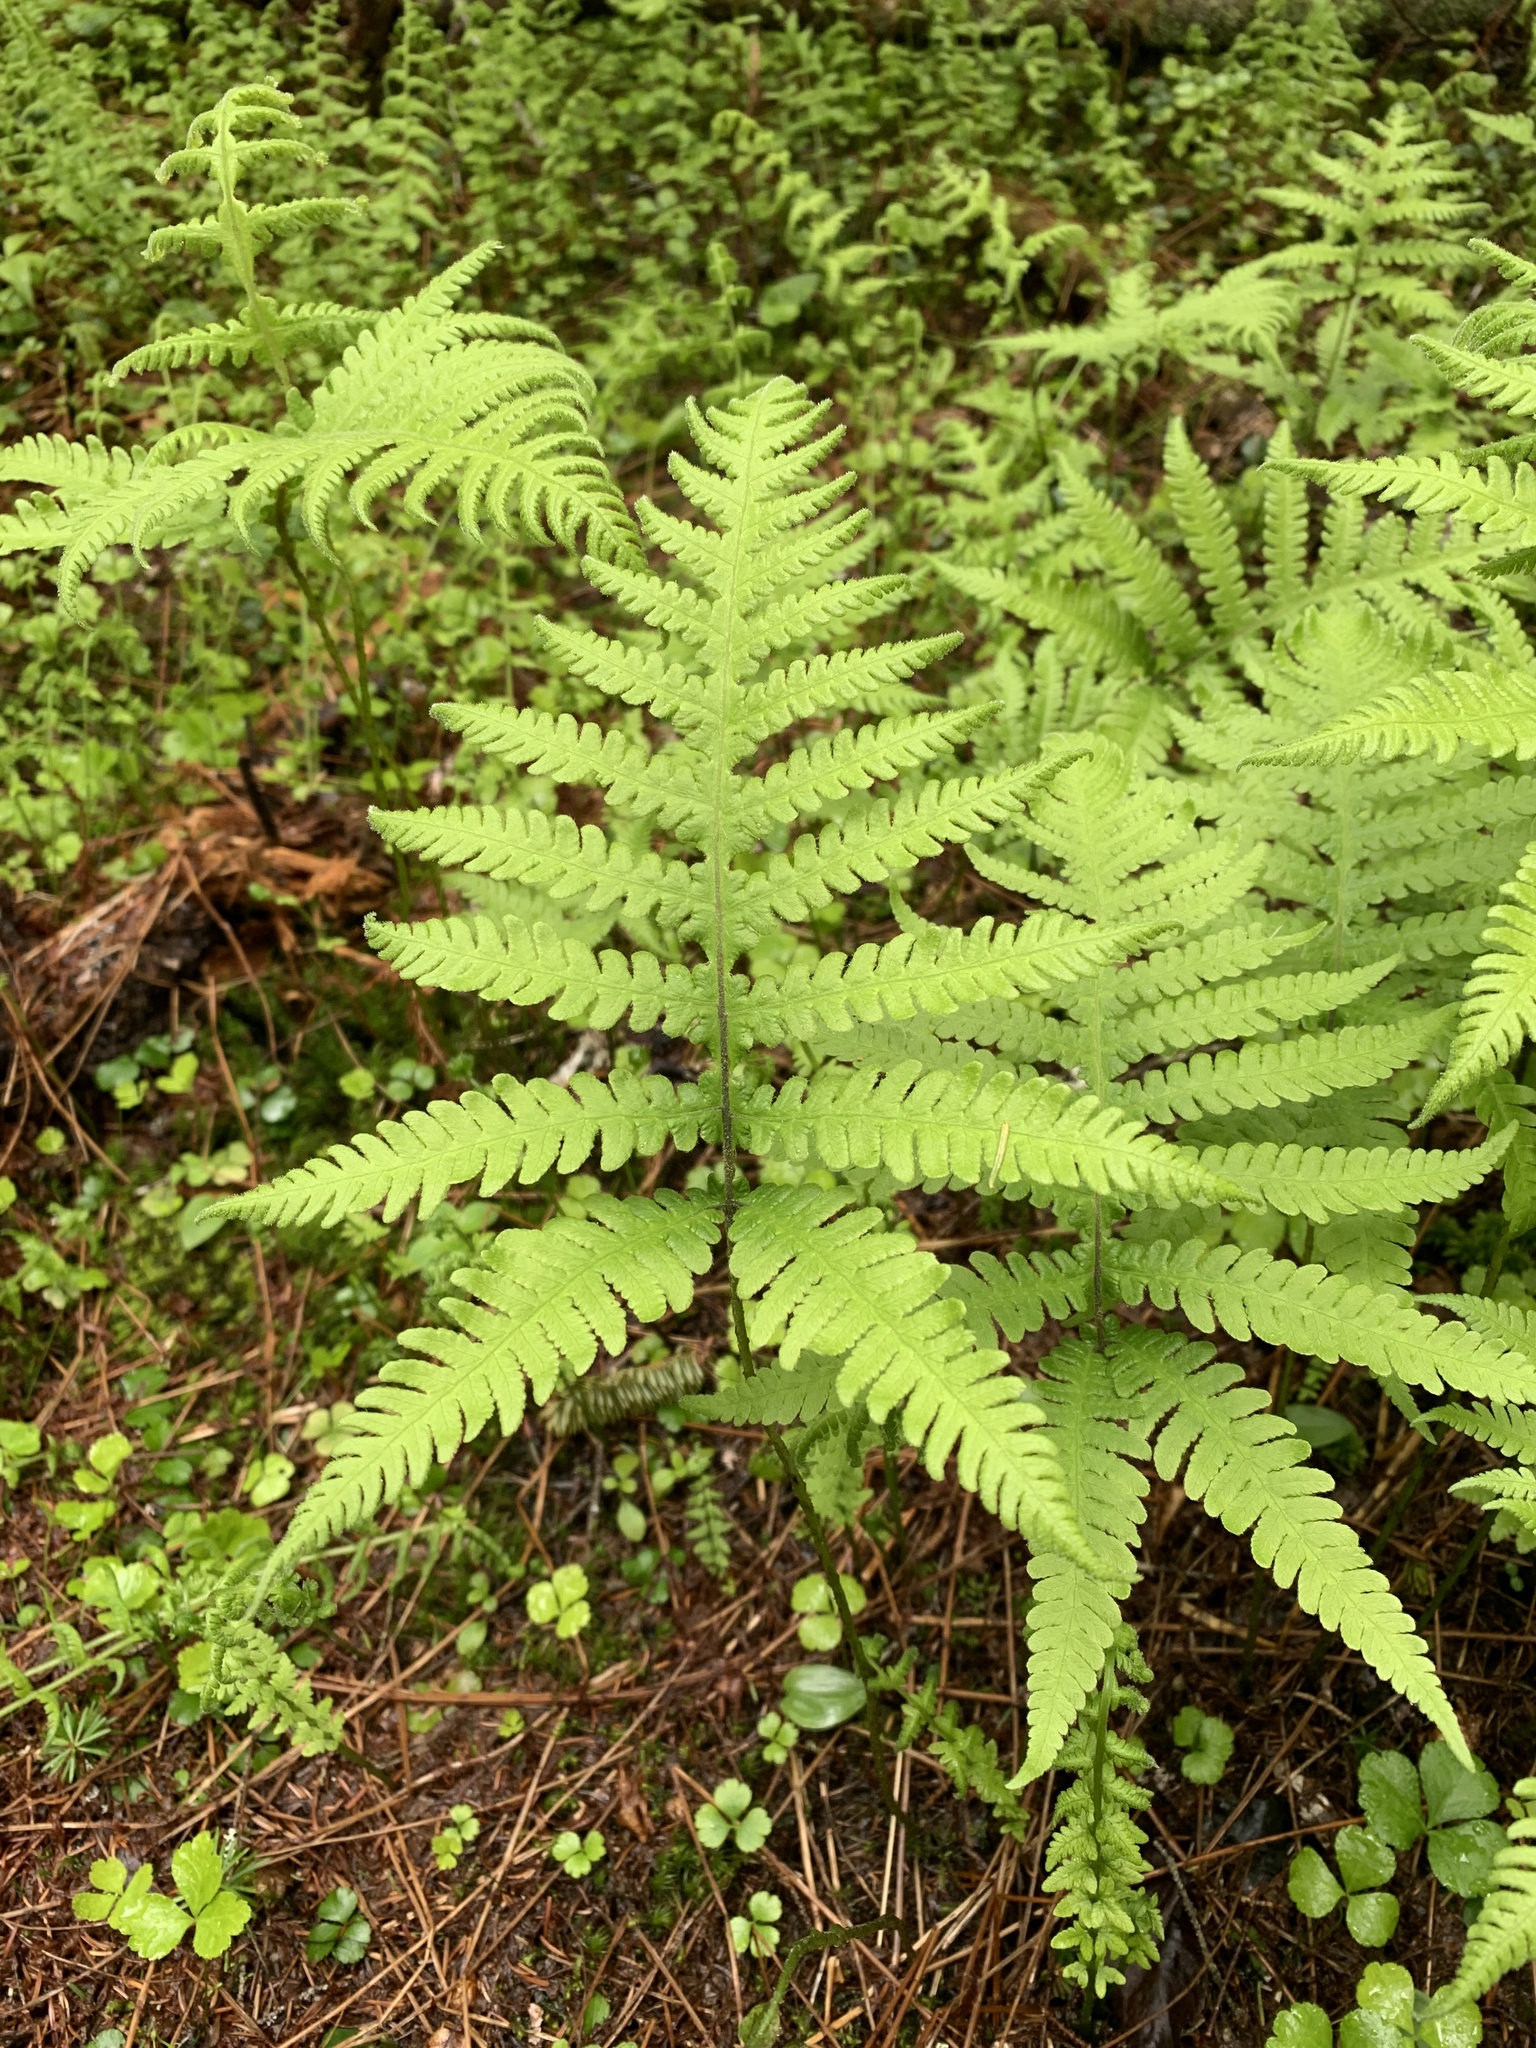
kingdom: Plantae
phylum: Tracheophyta
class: Polypodiopsida
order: Polypodiales
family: Thelypteridaceae
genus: Phegopteris
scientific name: Phegopteris connectilis
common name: Beech fern
